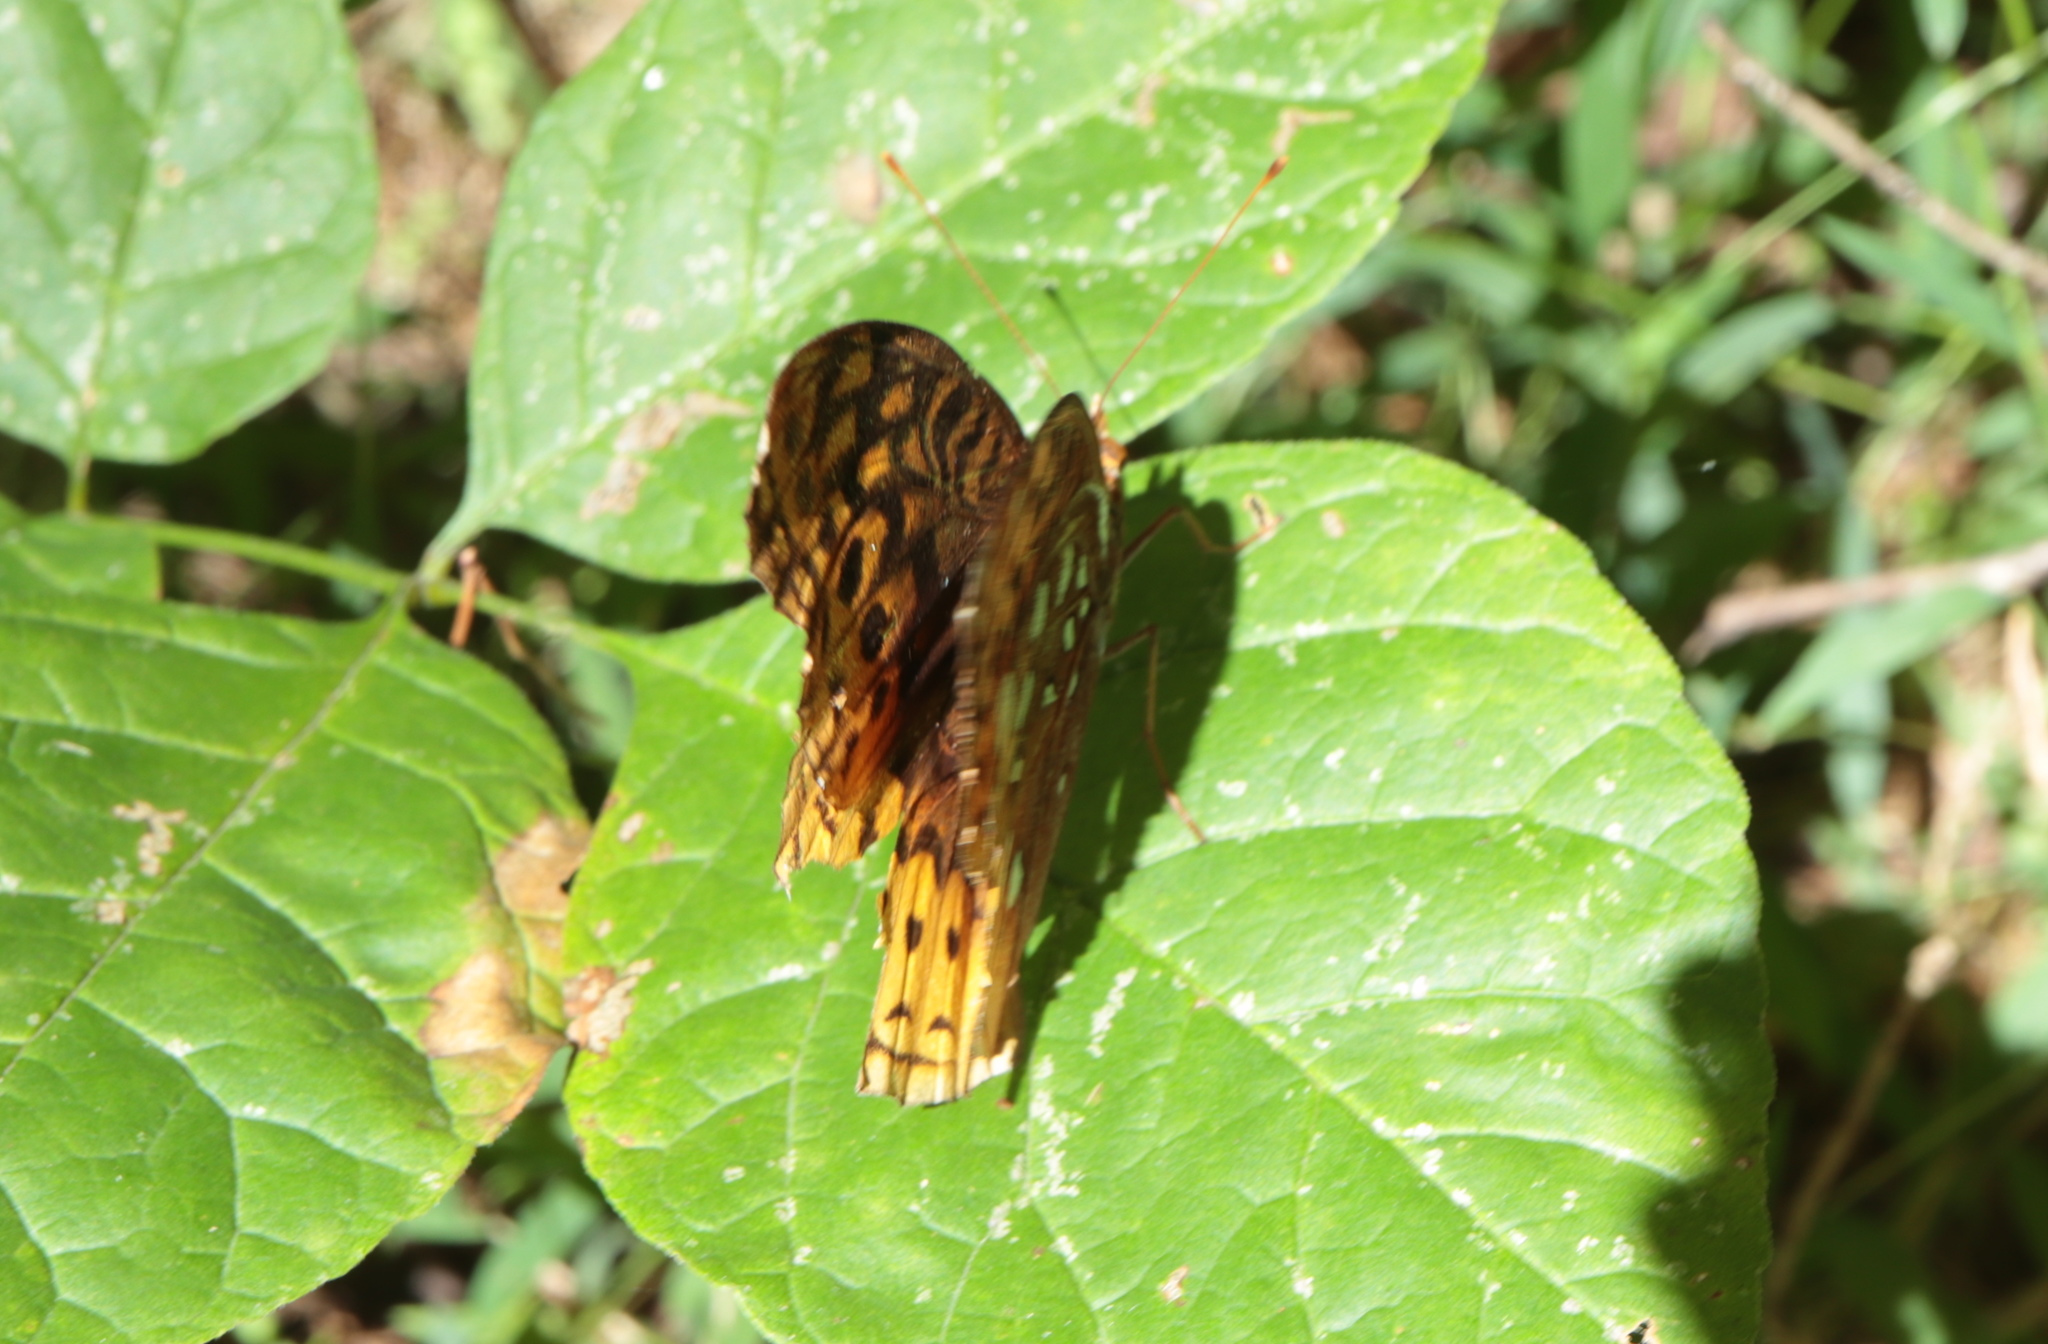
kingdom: Animalia
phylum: Arthropoda
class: Insecta
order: Lepidoptera
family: Nymphalidae
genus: Speyeria
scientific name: Speyeria cybele
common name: Great spangled fritillary
